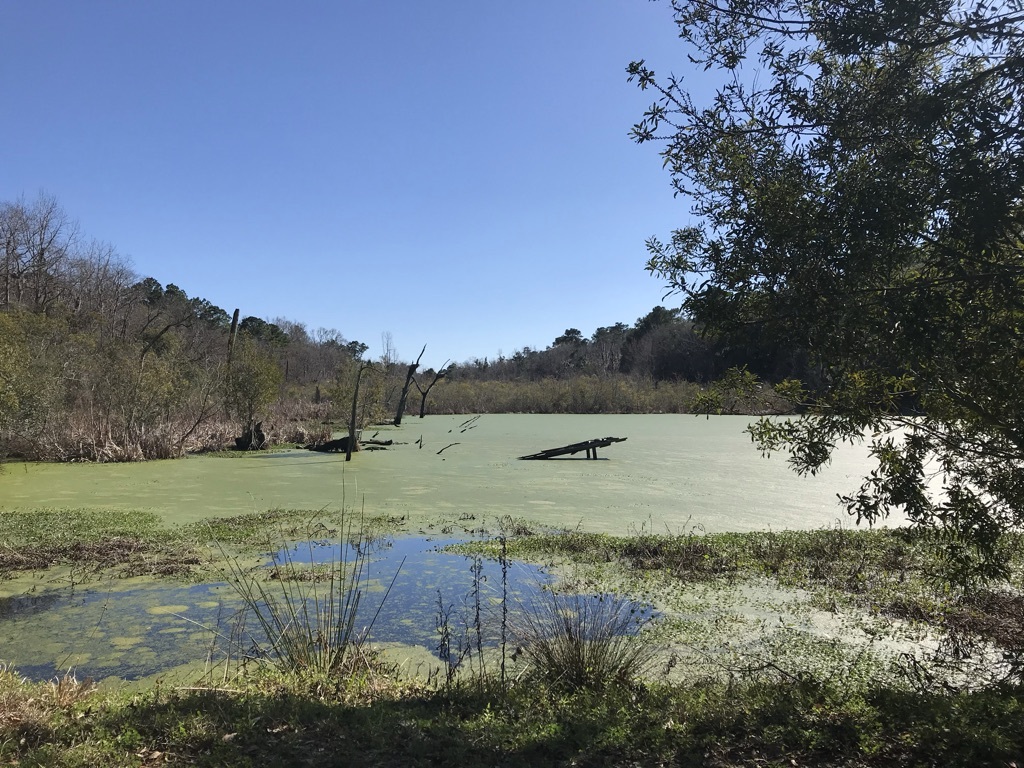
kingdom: Animalia
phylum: Chordata
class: Crocodylia
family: Alligatoridae
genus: Alligator
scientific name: Alligator mississippiensis
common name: American alligator
